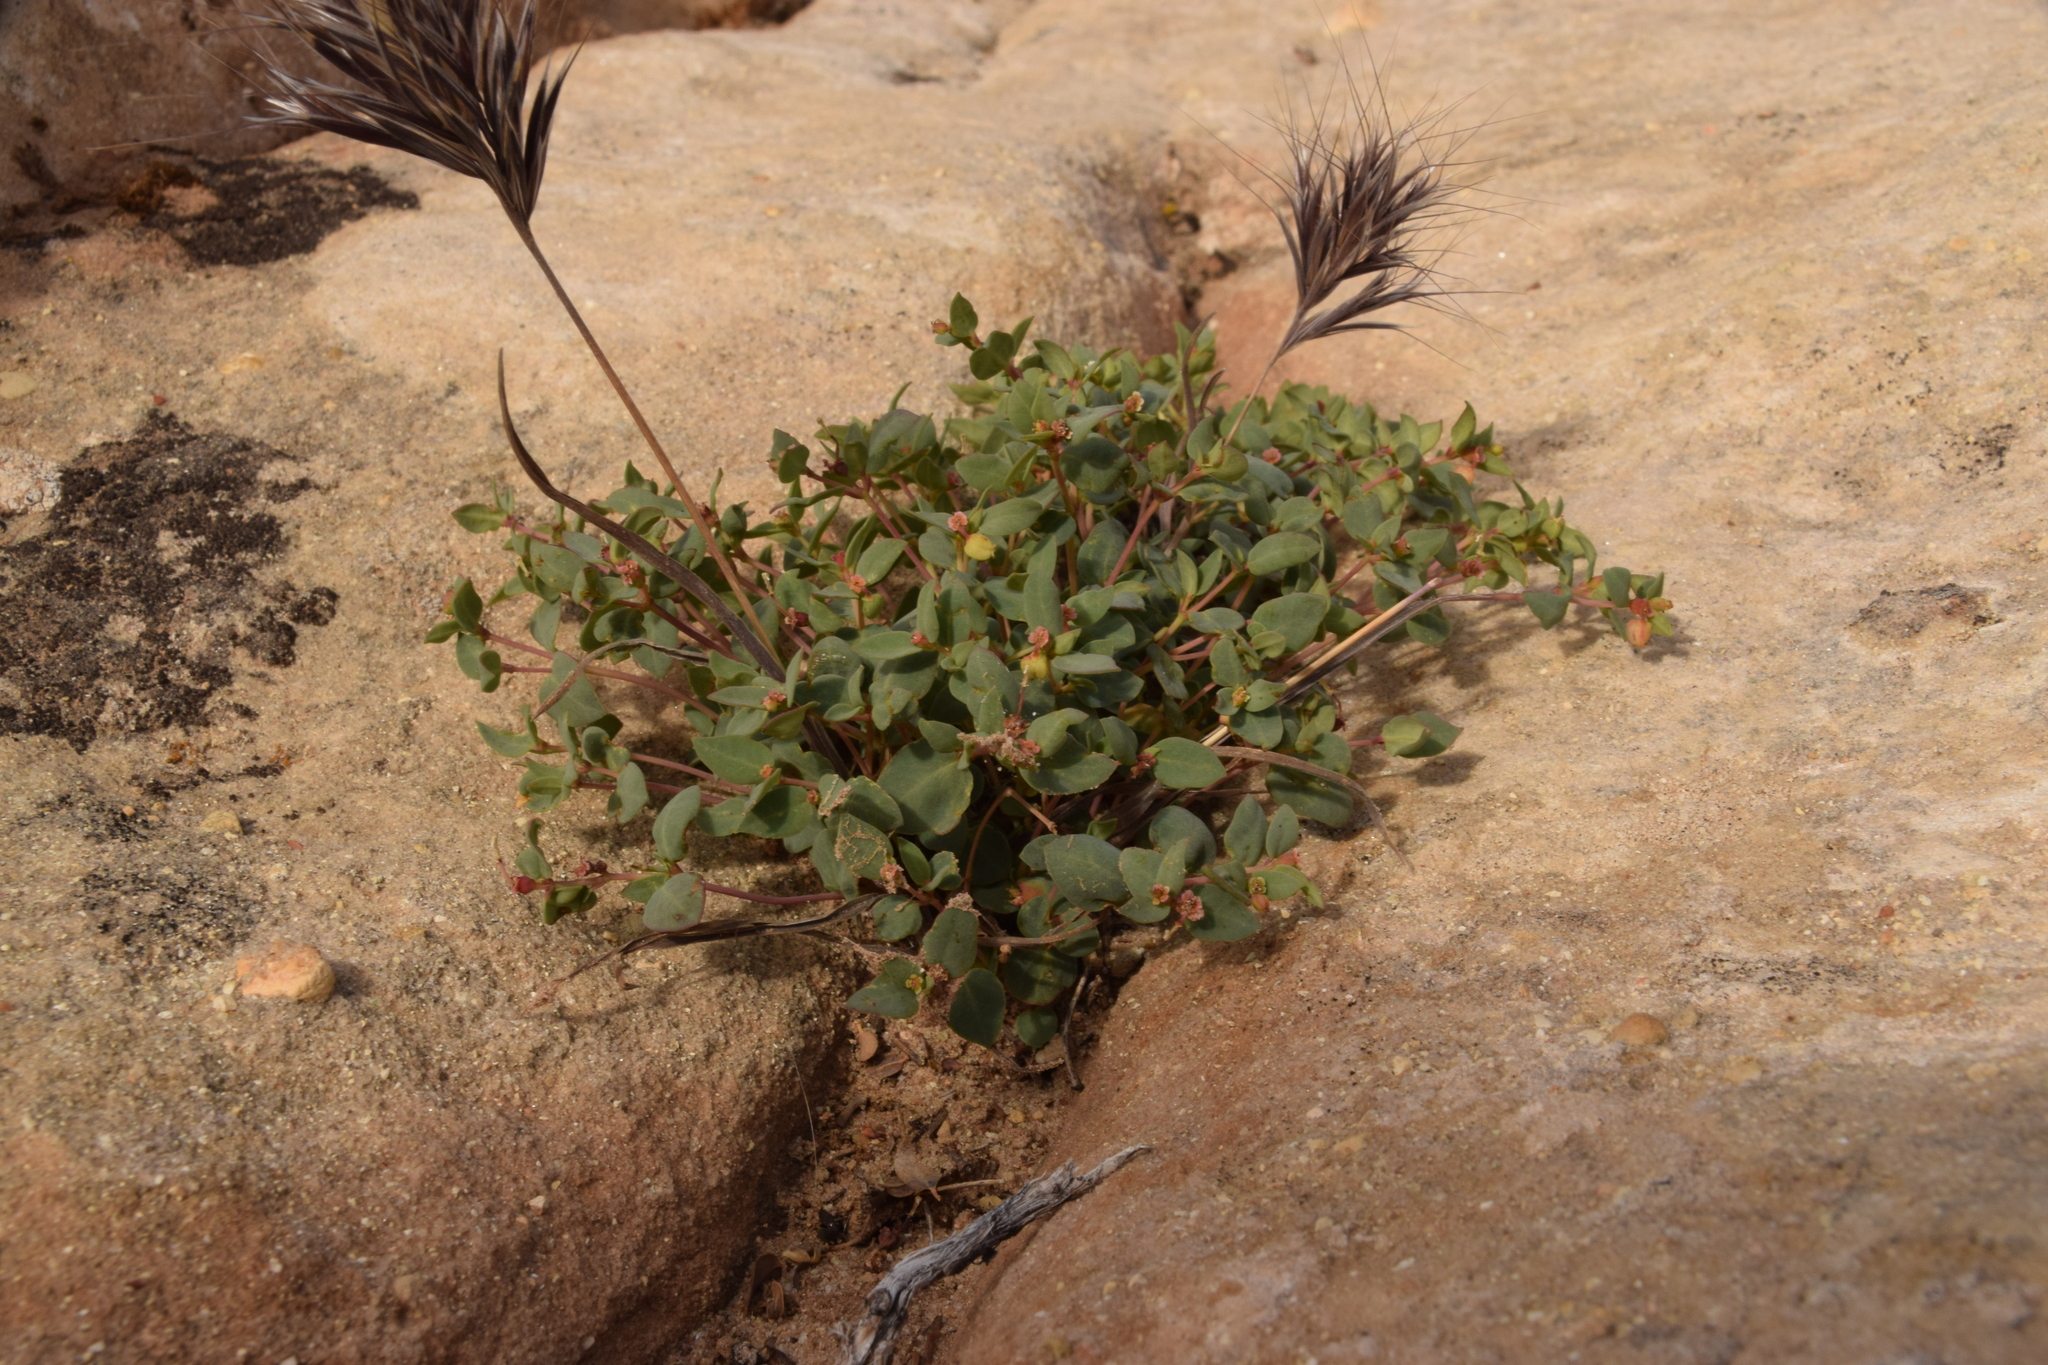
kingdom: Plantae
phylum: Tracheophyta
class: Magnoliopsida
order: Malpighiales
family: Euphorbiaceae
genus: Euphorbia
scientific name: Euphorbia fendleri
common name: Fendler's euphorbia
